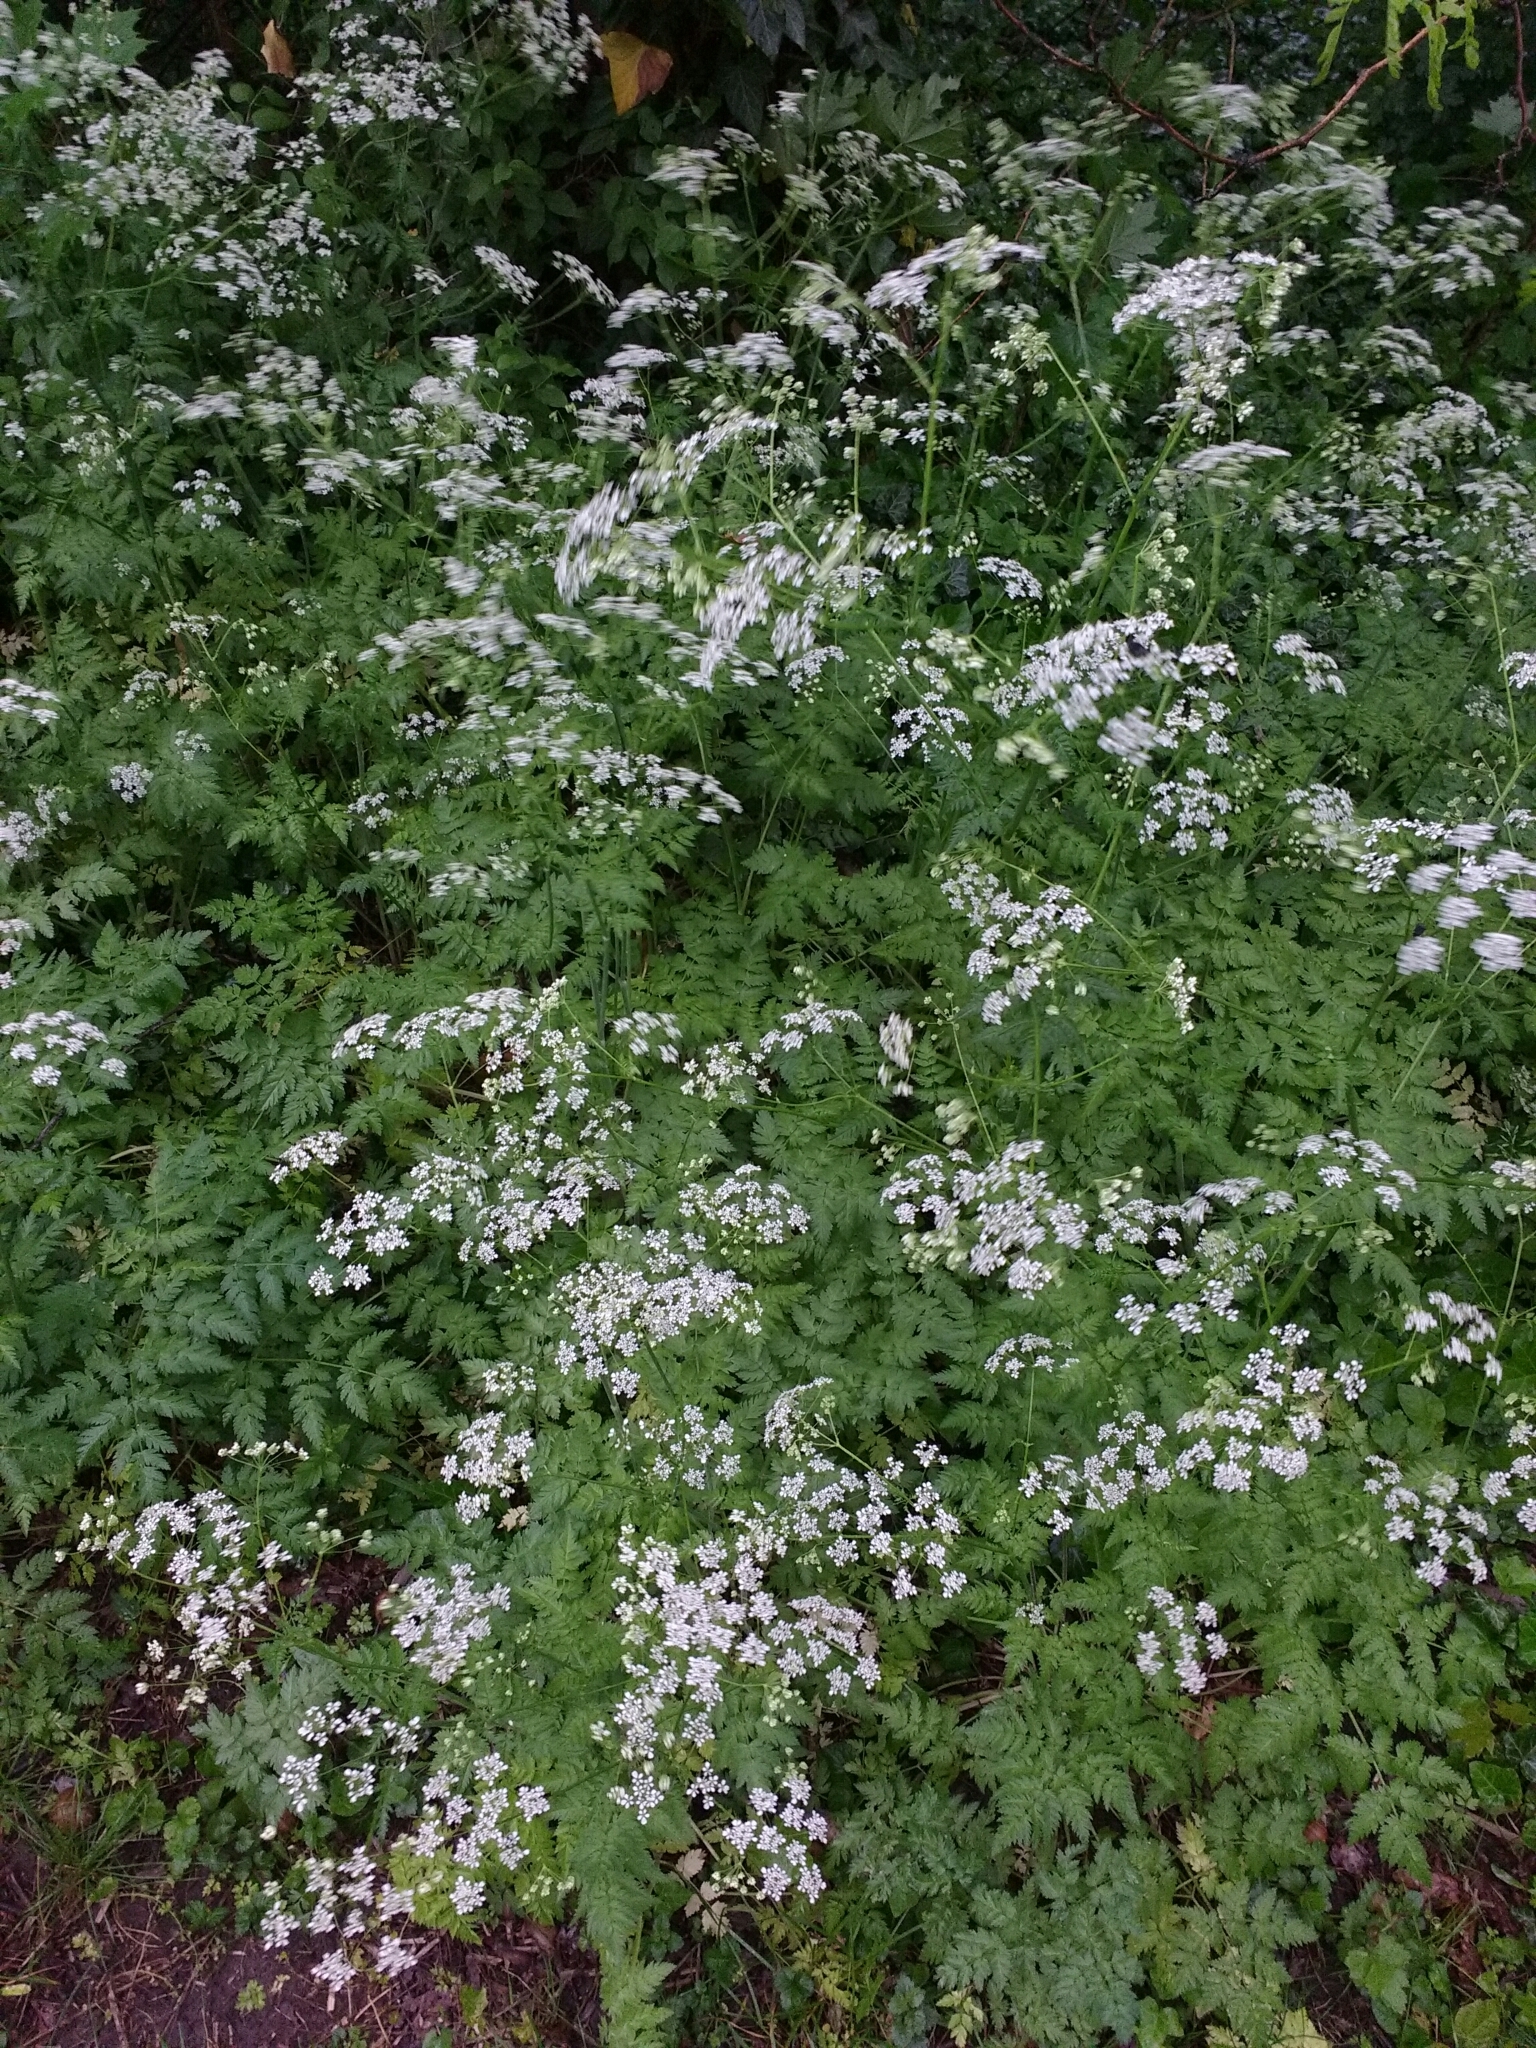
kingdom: Plantae
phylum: Tracheophyta
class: Magnoliopsida
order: Apiales
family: Apiaceae
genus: Anthriscus
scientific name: Anthriscus sylvestris
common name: Cow parsley
